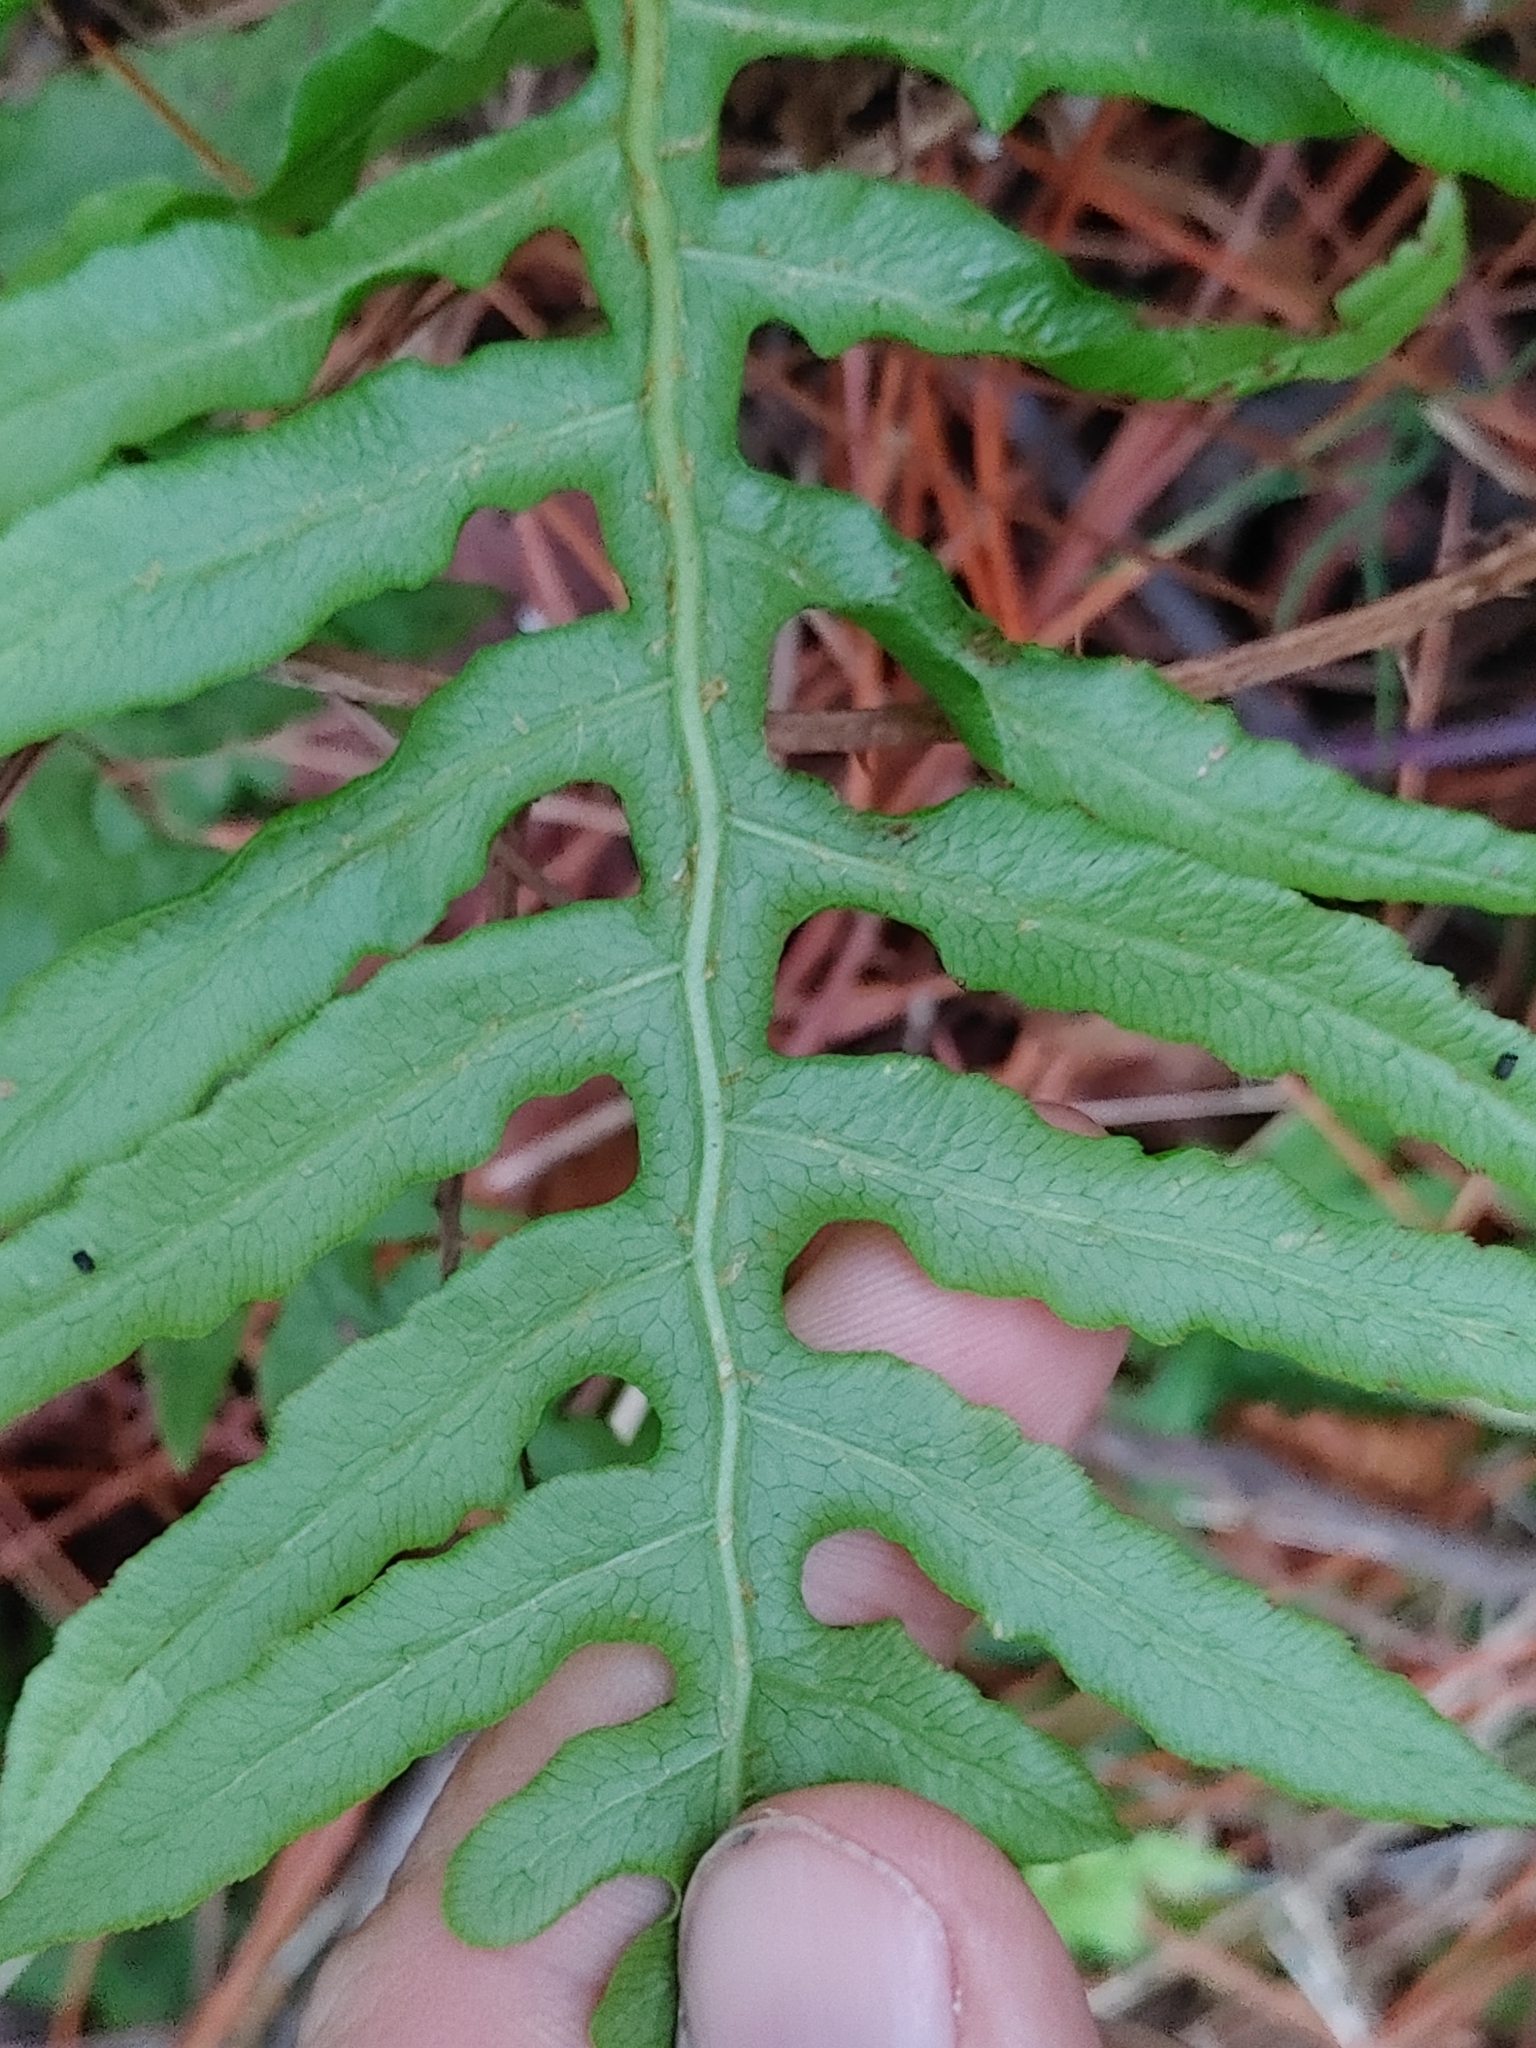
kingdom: Plantae
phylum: Tracheophyta
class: Polypodiopsida
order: Polypodiales
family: Blechnaceae
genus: Lorinseria
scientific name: Lorinseria areolata
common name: Dwarf chain fern
